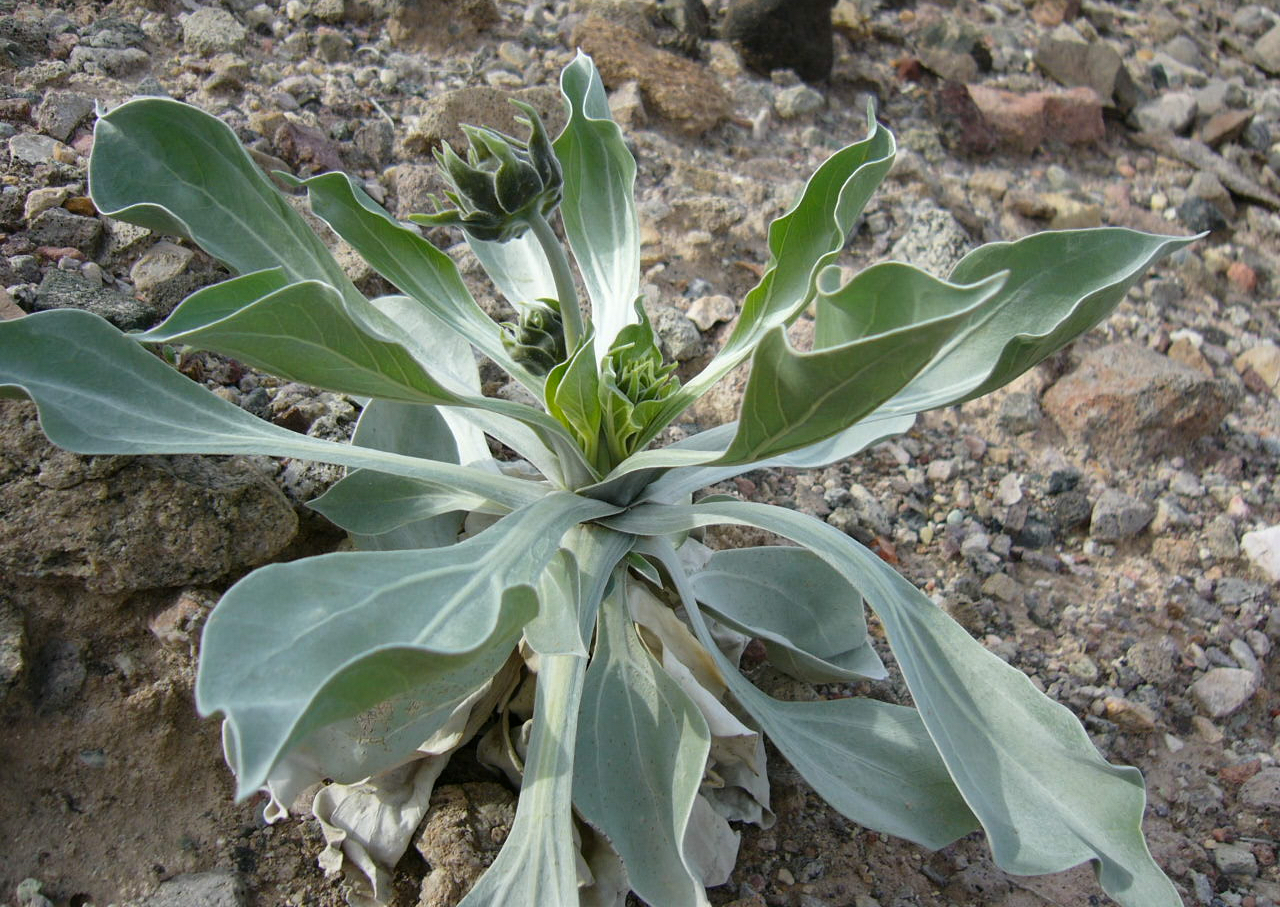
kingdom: Plantae
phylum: Tracheophyta
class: Magnoliopsida
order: Asterales
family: Asteraceae
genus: Enceliopsis
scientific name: Enceliopsis argophylla
